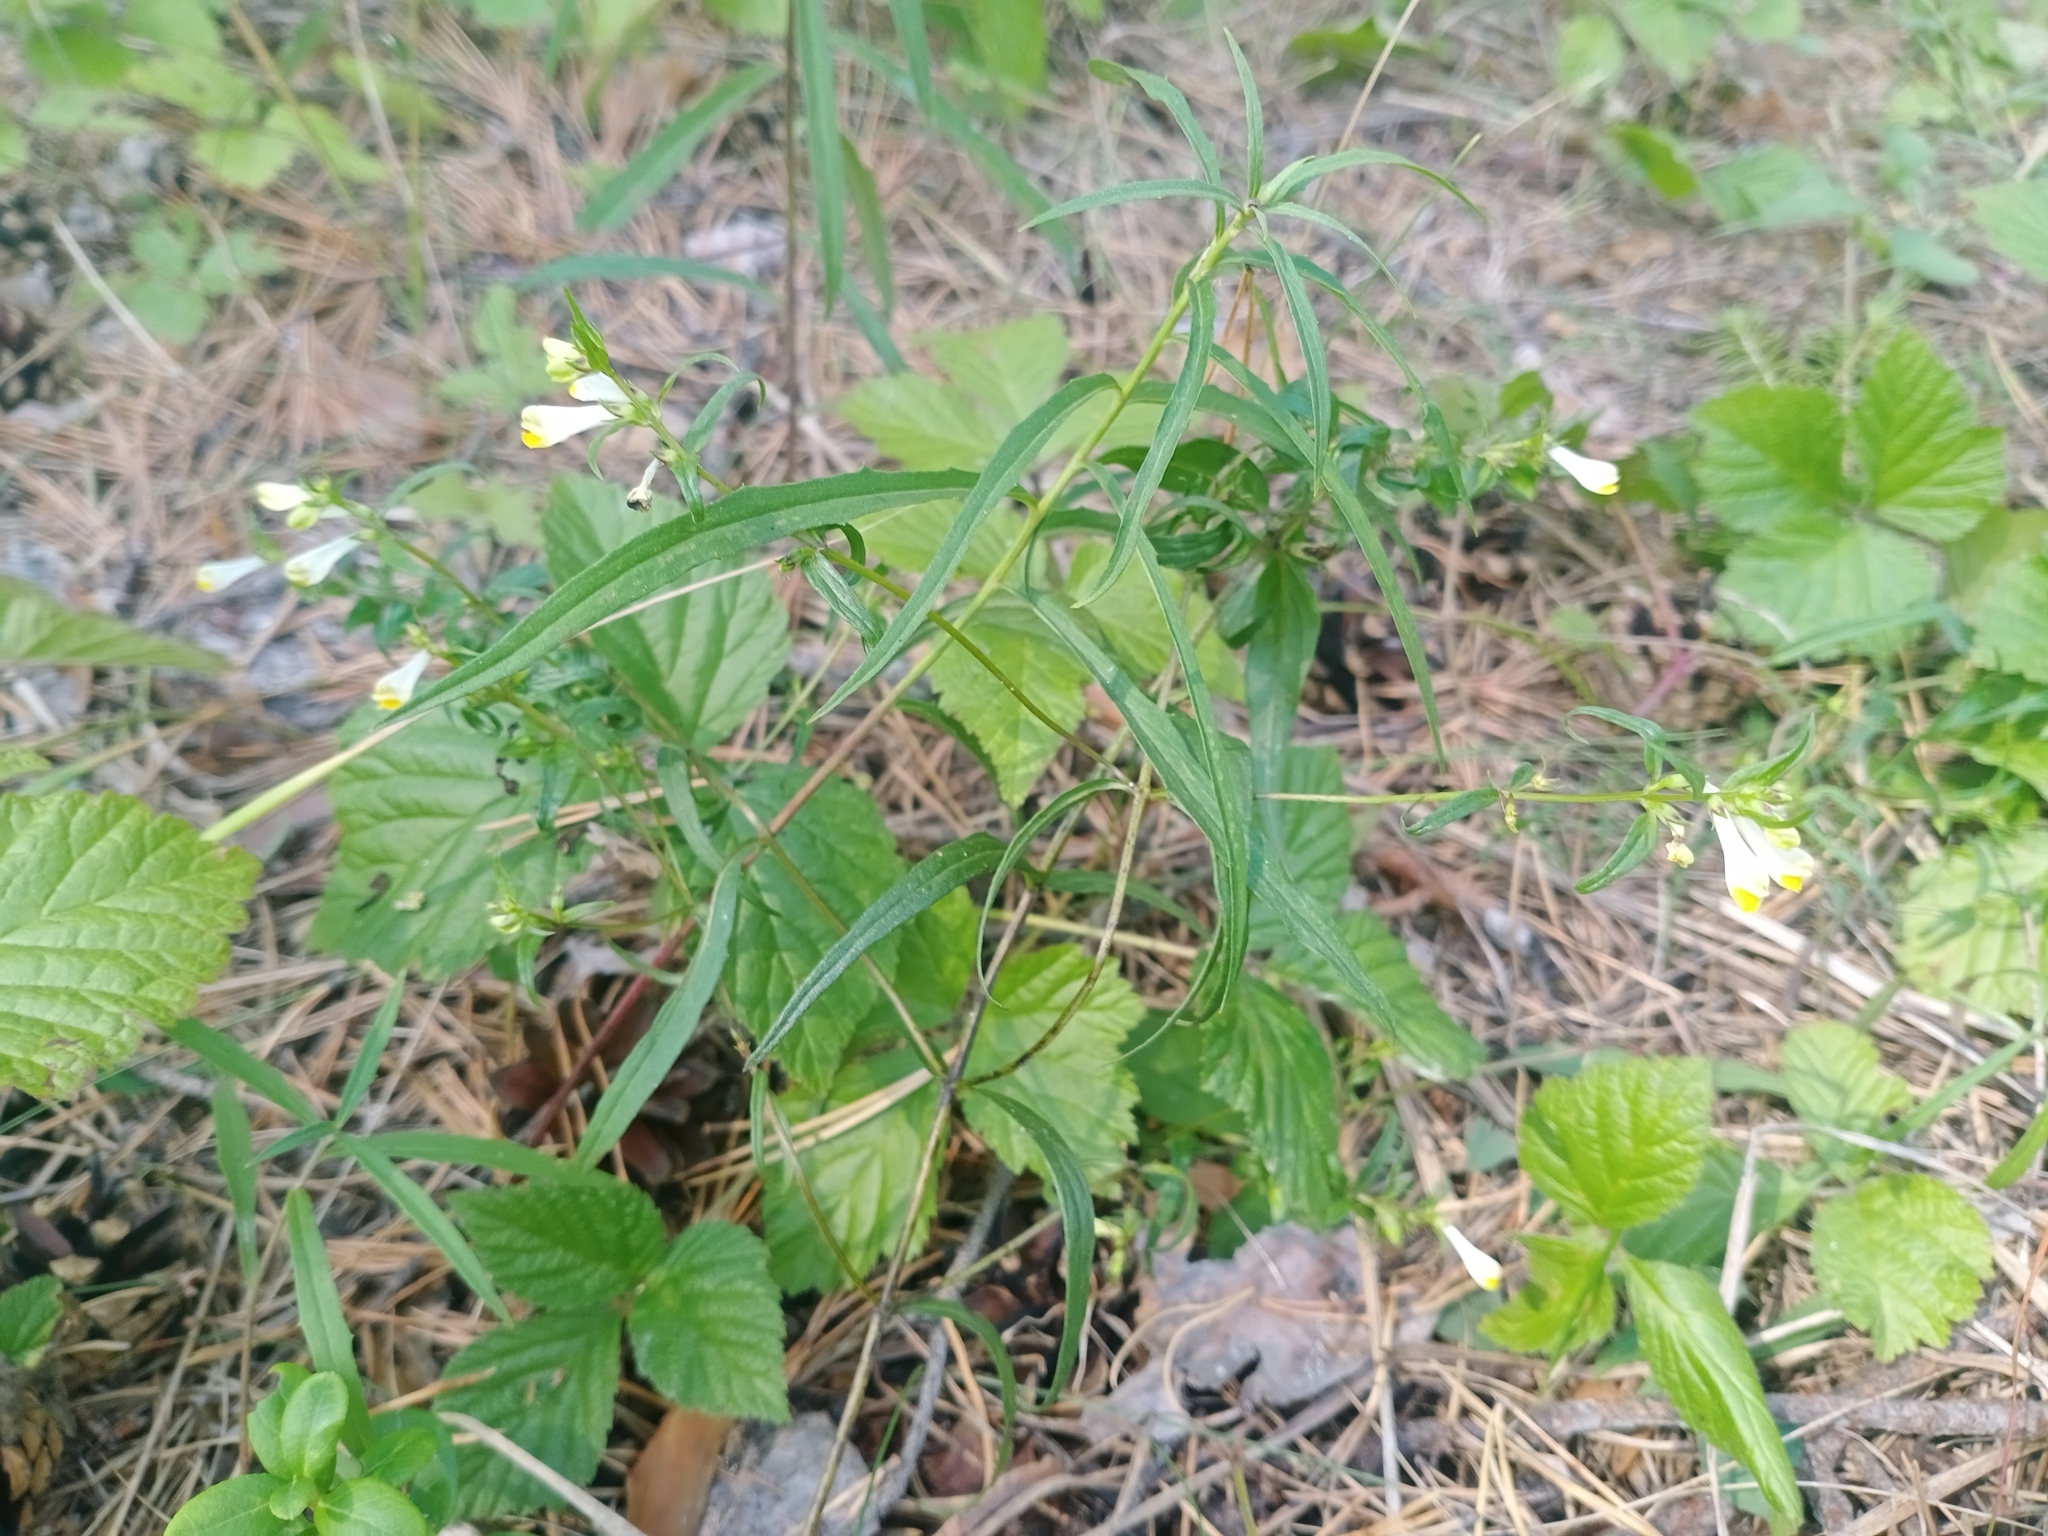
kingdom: Plantae
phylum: Tracheophyta
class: Magnoliopsida
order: Lamiales
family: Orobanchaceae
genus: Melampyrum
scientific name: Melampyrum pratense
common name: Common cow-wheat
